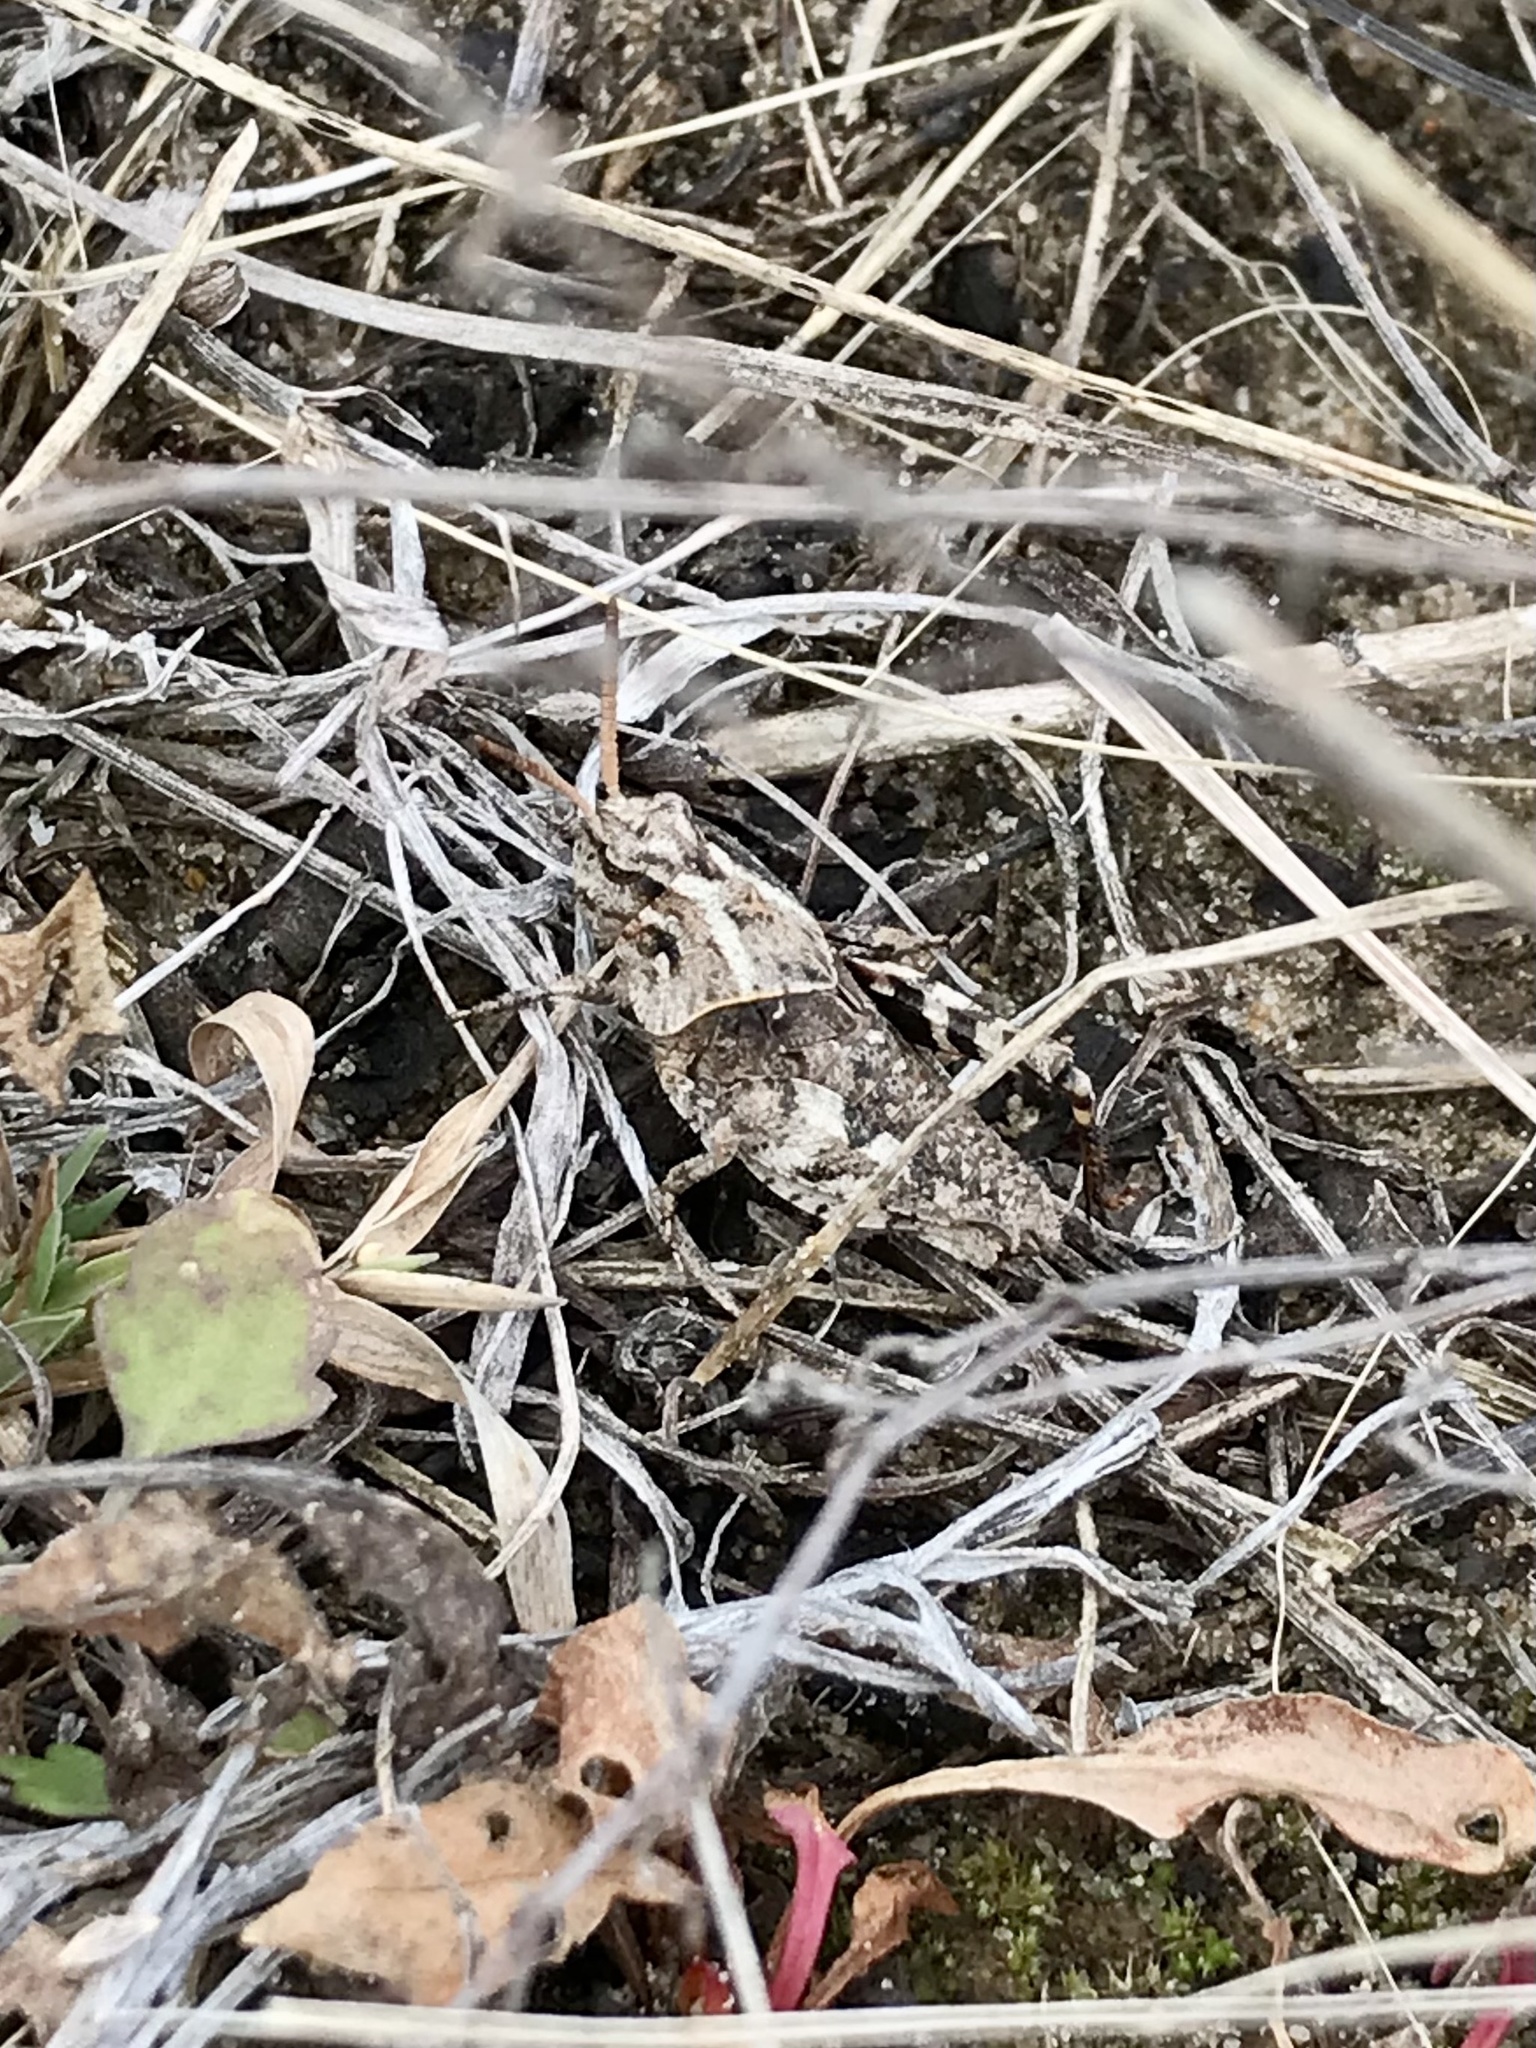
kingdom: Animalia
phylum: Arthropoda
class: Insecta
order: Orthoptera
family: Acrididae
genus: Pardalophora
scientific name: Pardalophora apiculata
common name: Coral-winged locust
